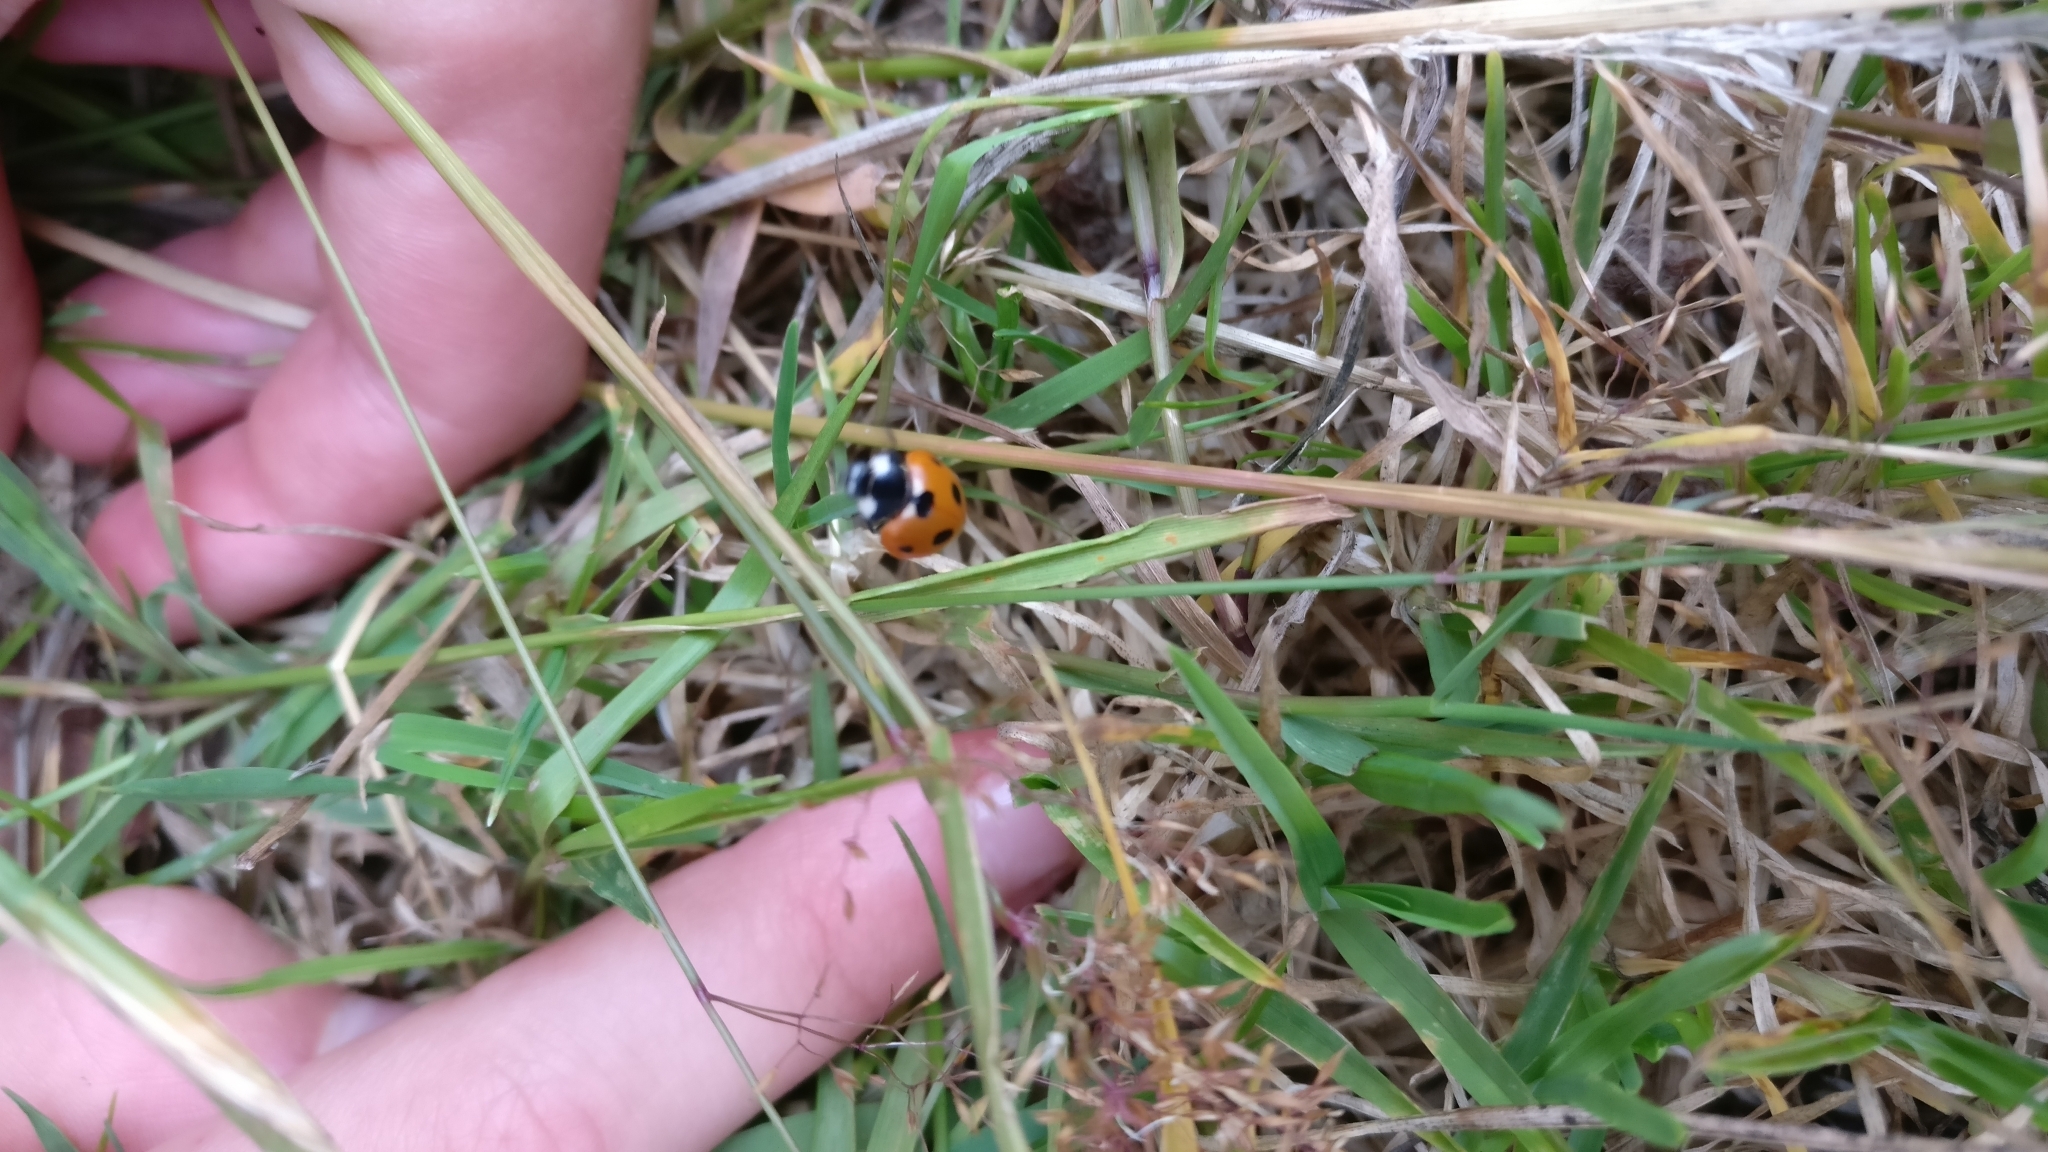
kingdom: Animalia
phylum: Arthropoda
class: Insecta
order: Coleoptera
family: Coccinellidae
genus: Coccinella
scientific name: Coccinella septempunctata
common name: Sevenspotted lady beetle
